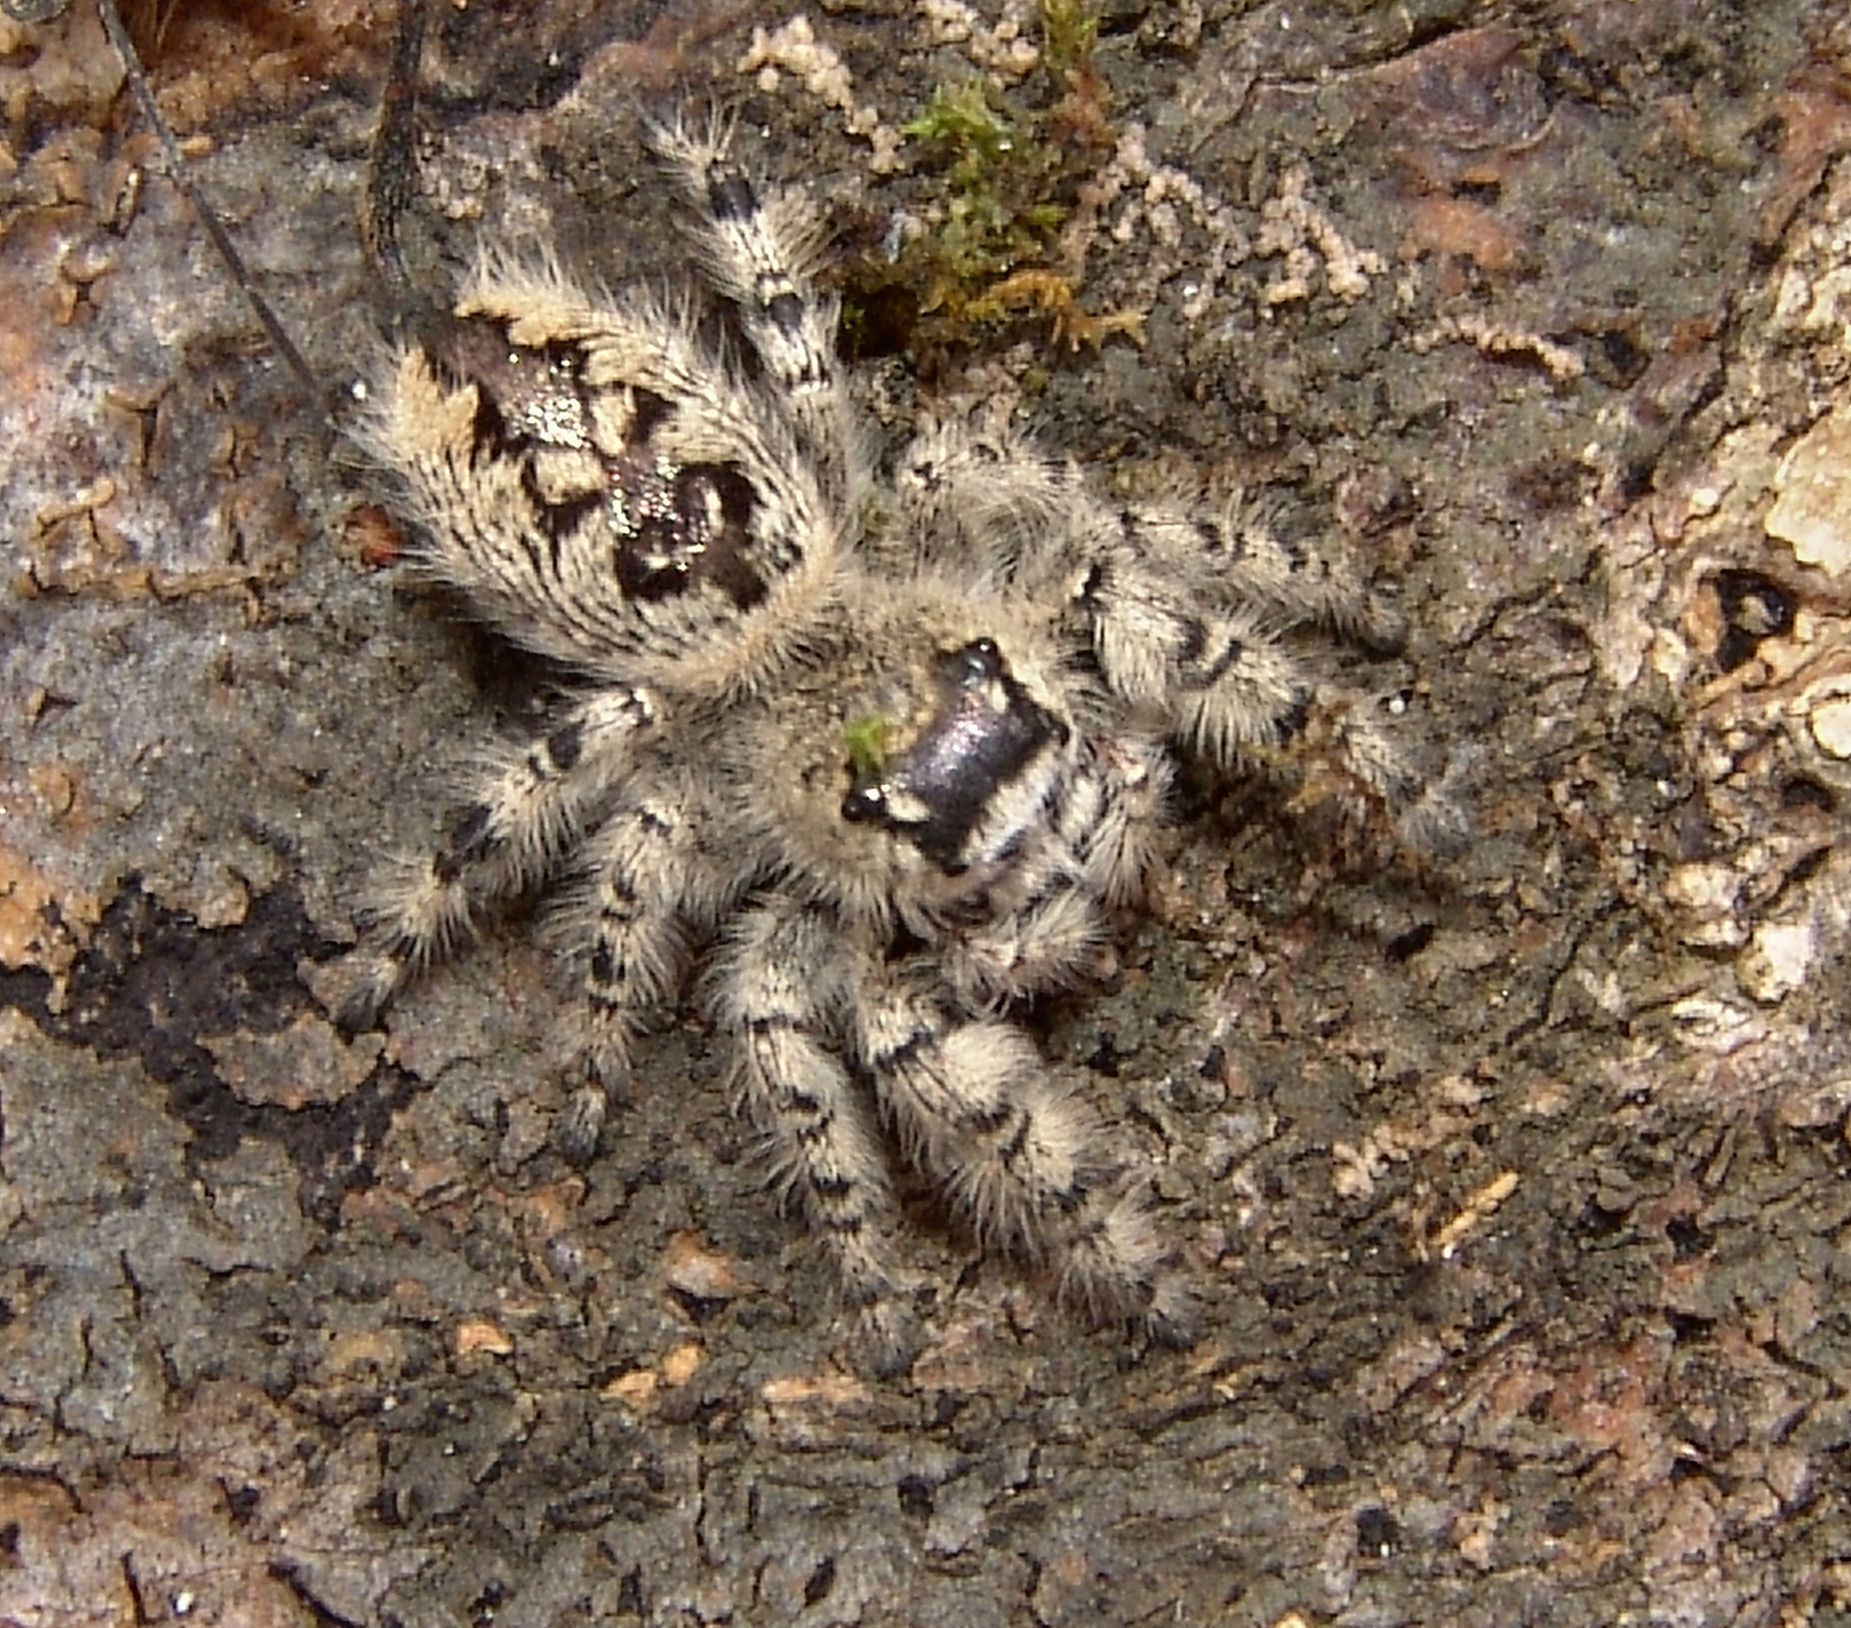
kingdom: Animalia
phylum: Arthropoda
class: Arachnida
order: Araneae
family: Salticidae
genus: Phidippus
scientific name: Phidippus otiosus
